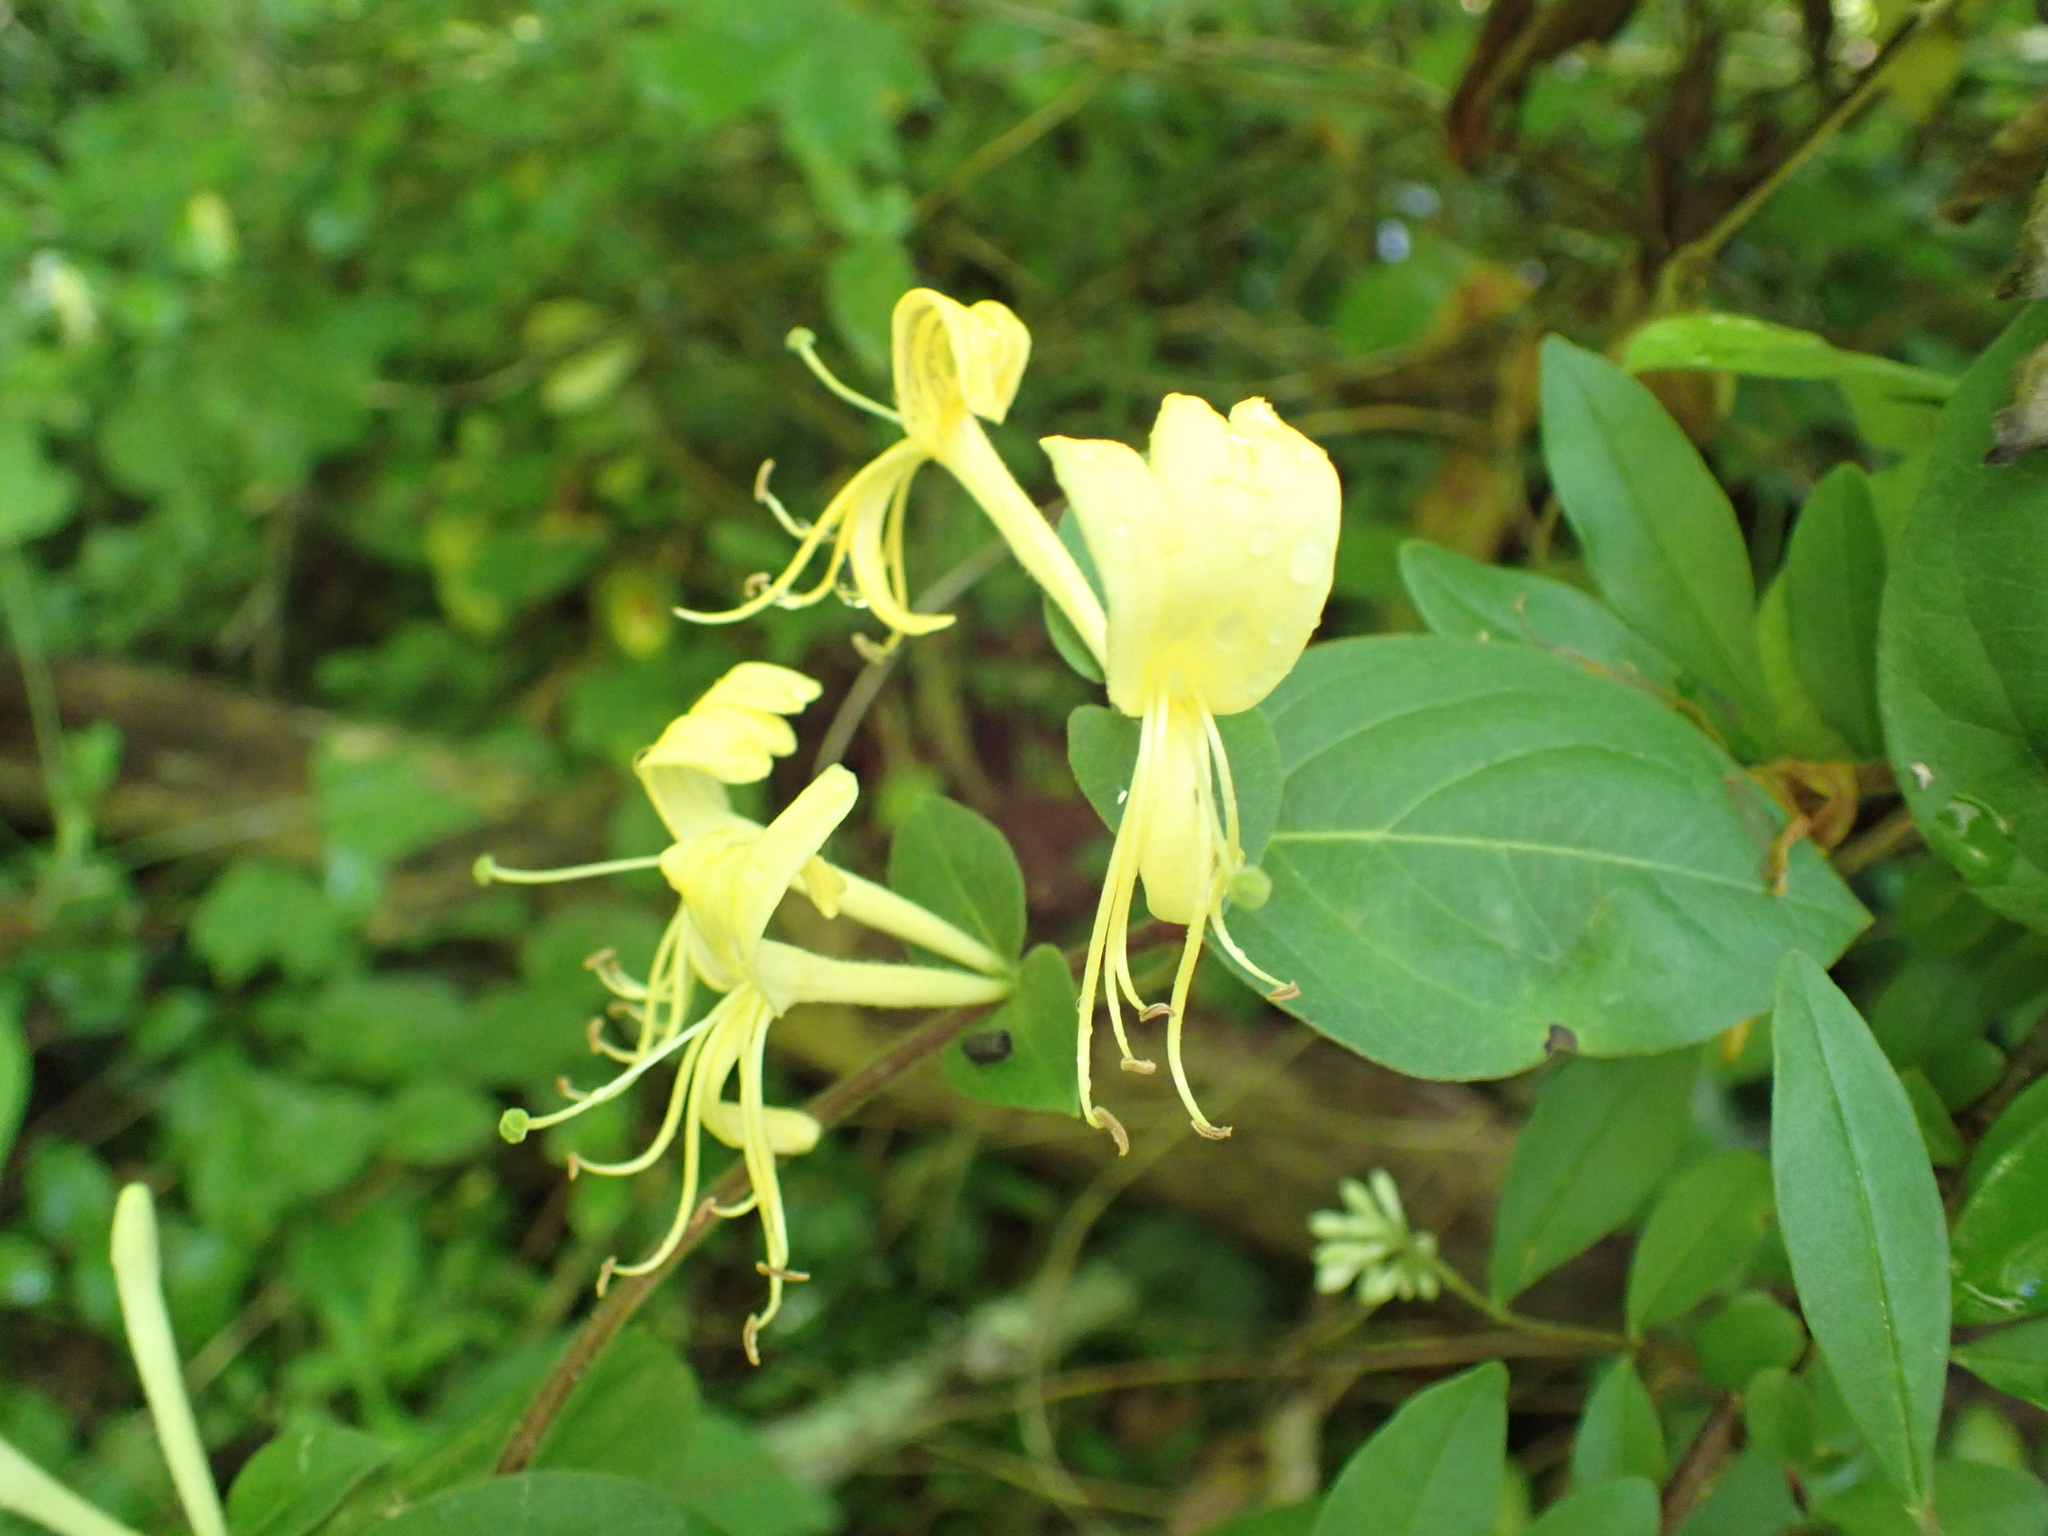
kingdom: Plantae
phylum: Tracheophyta
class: Magnoliopsida
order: Dipsacales
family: Caprifoliaceae
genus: Lonicera
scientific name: Lonicera japonica
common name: Japanese honeysuckle
